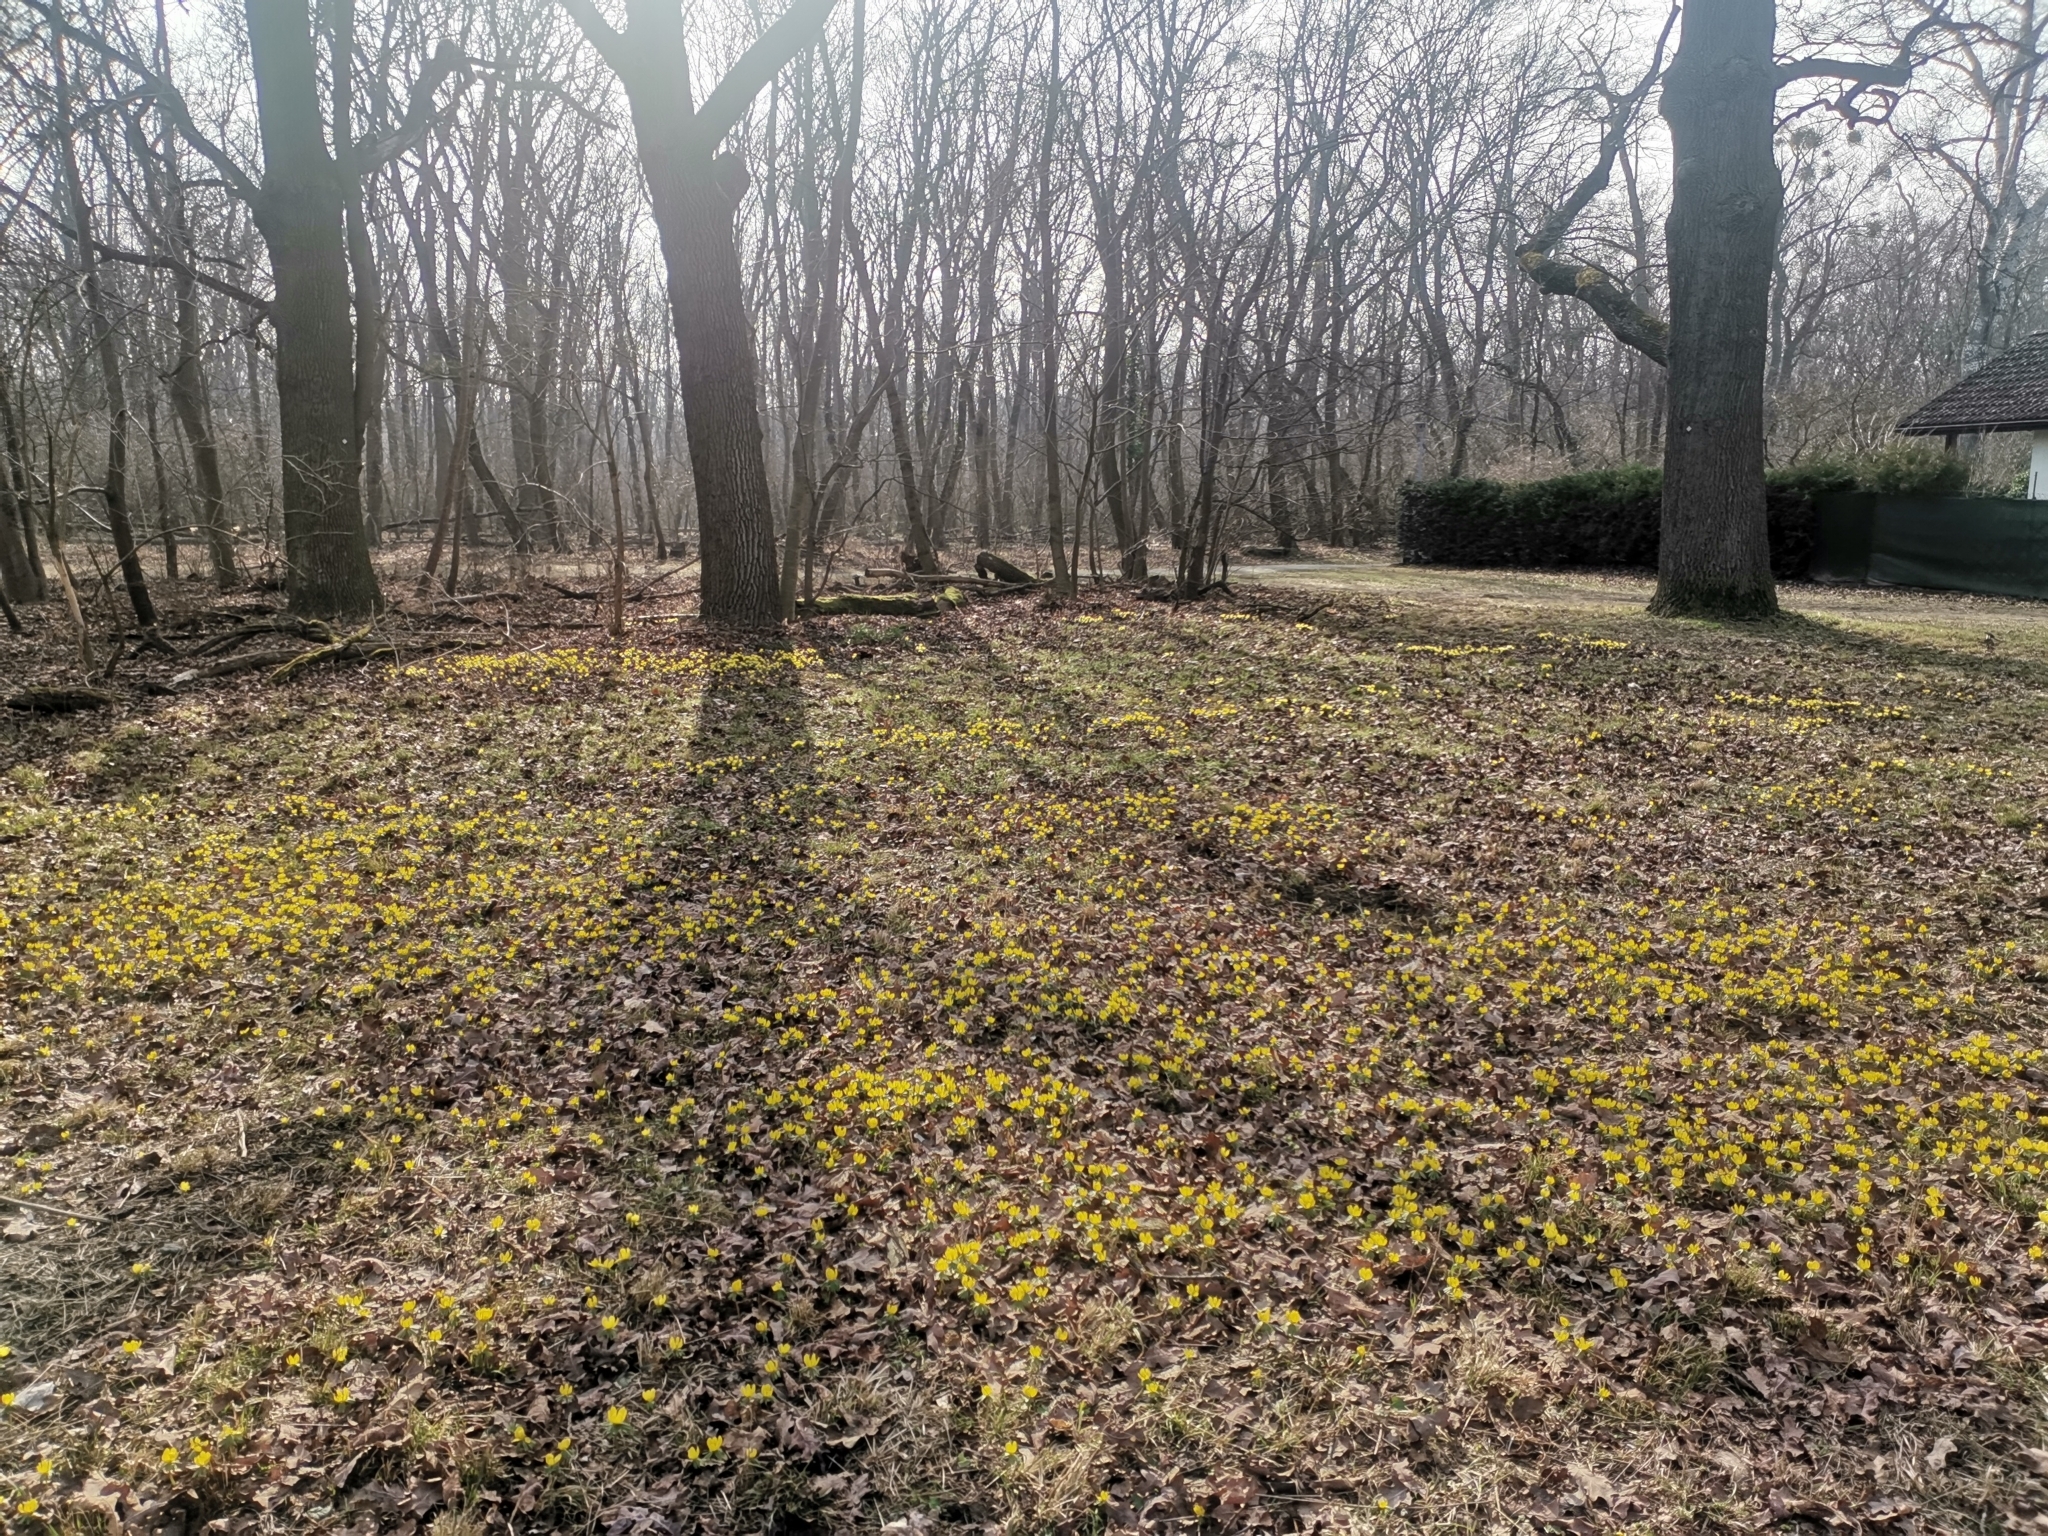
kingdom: Plantae
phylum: Tracheophyta
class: Magnoliopsida
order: Ranunculales
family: Ranunculaceae
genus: Eranthis
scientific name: Eranthis hyemalis
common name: Winter aconite
